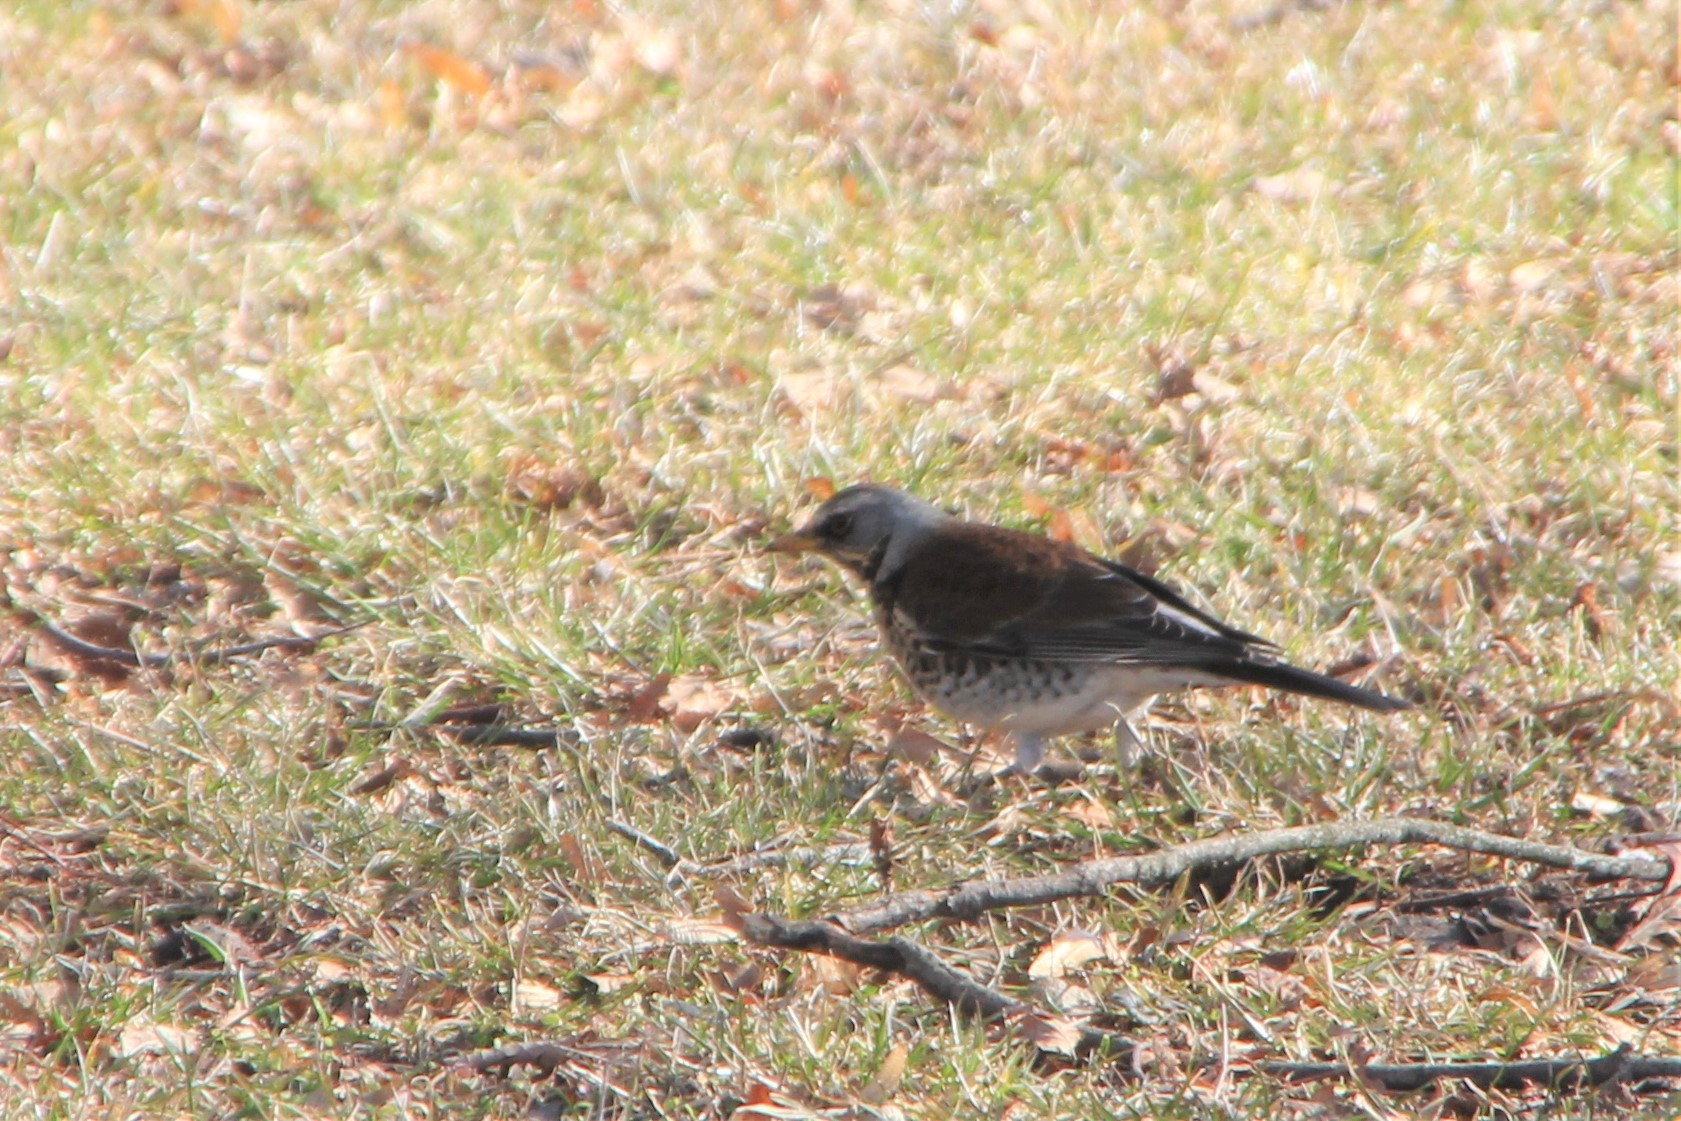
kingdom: Animalia
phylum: Chordata
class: Aves
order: Passeriformes
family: Turdidae
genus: Turdus
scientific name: Turdus pilaris
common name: Fieldfare
